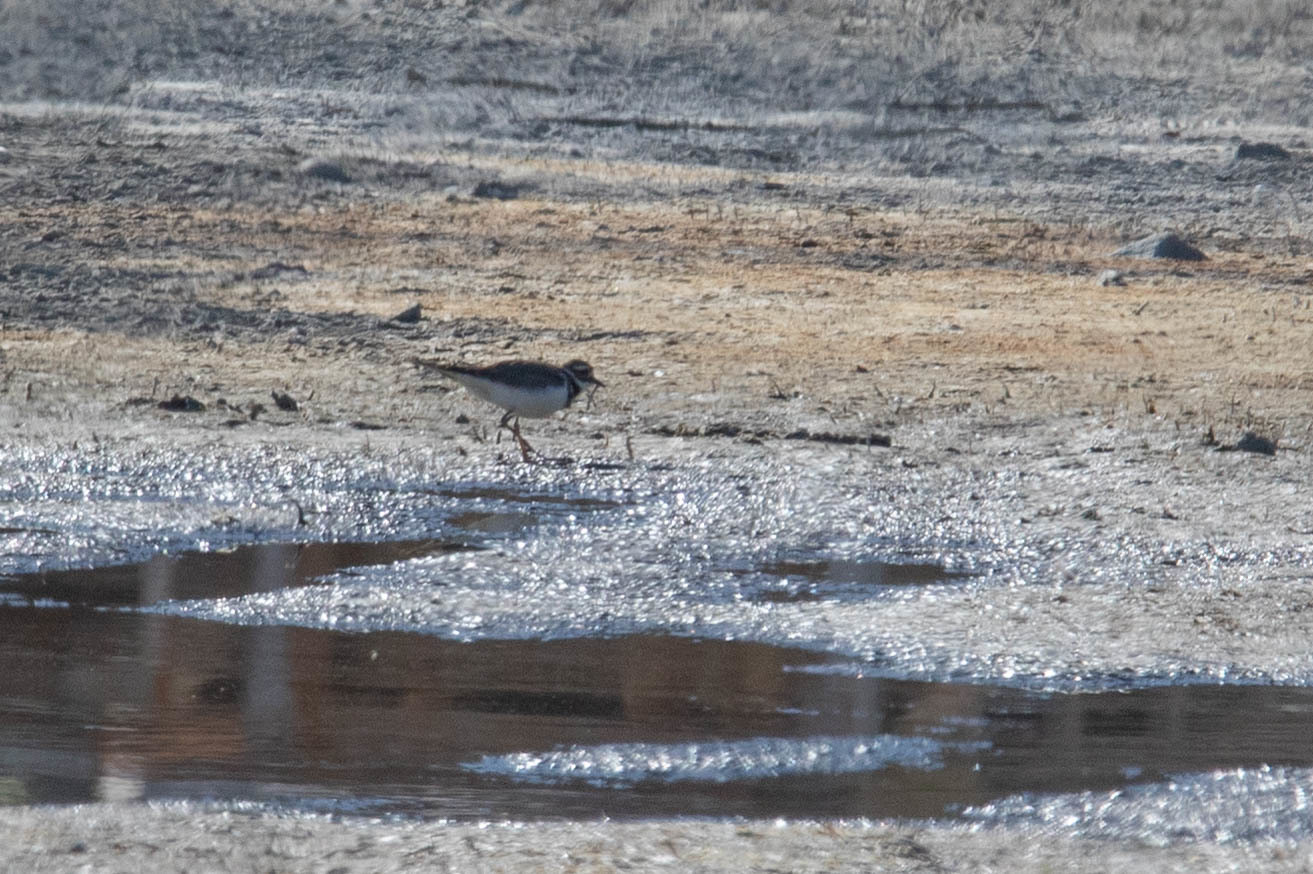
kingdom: Animalia
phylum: Chordata
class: Aves
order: Charadriiformes
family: Charadriidae
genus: Charadrius
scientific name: Charadrius vociferus
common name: Killdeer
